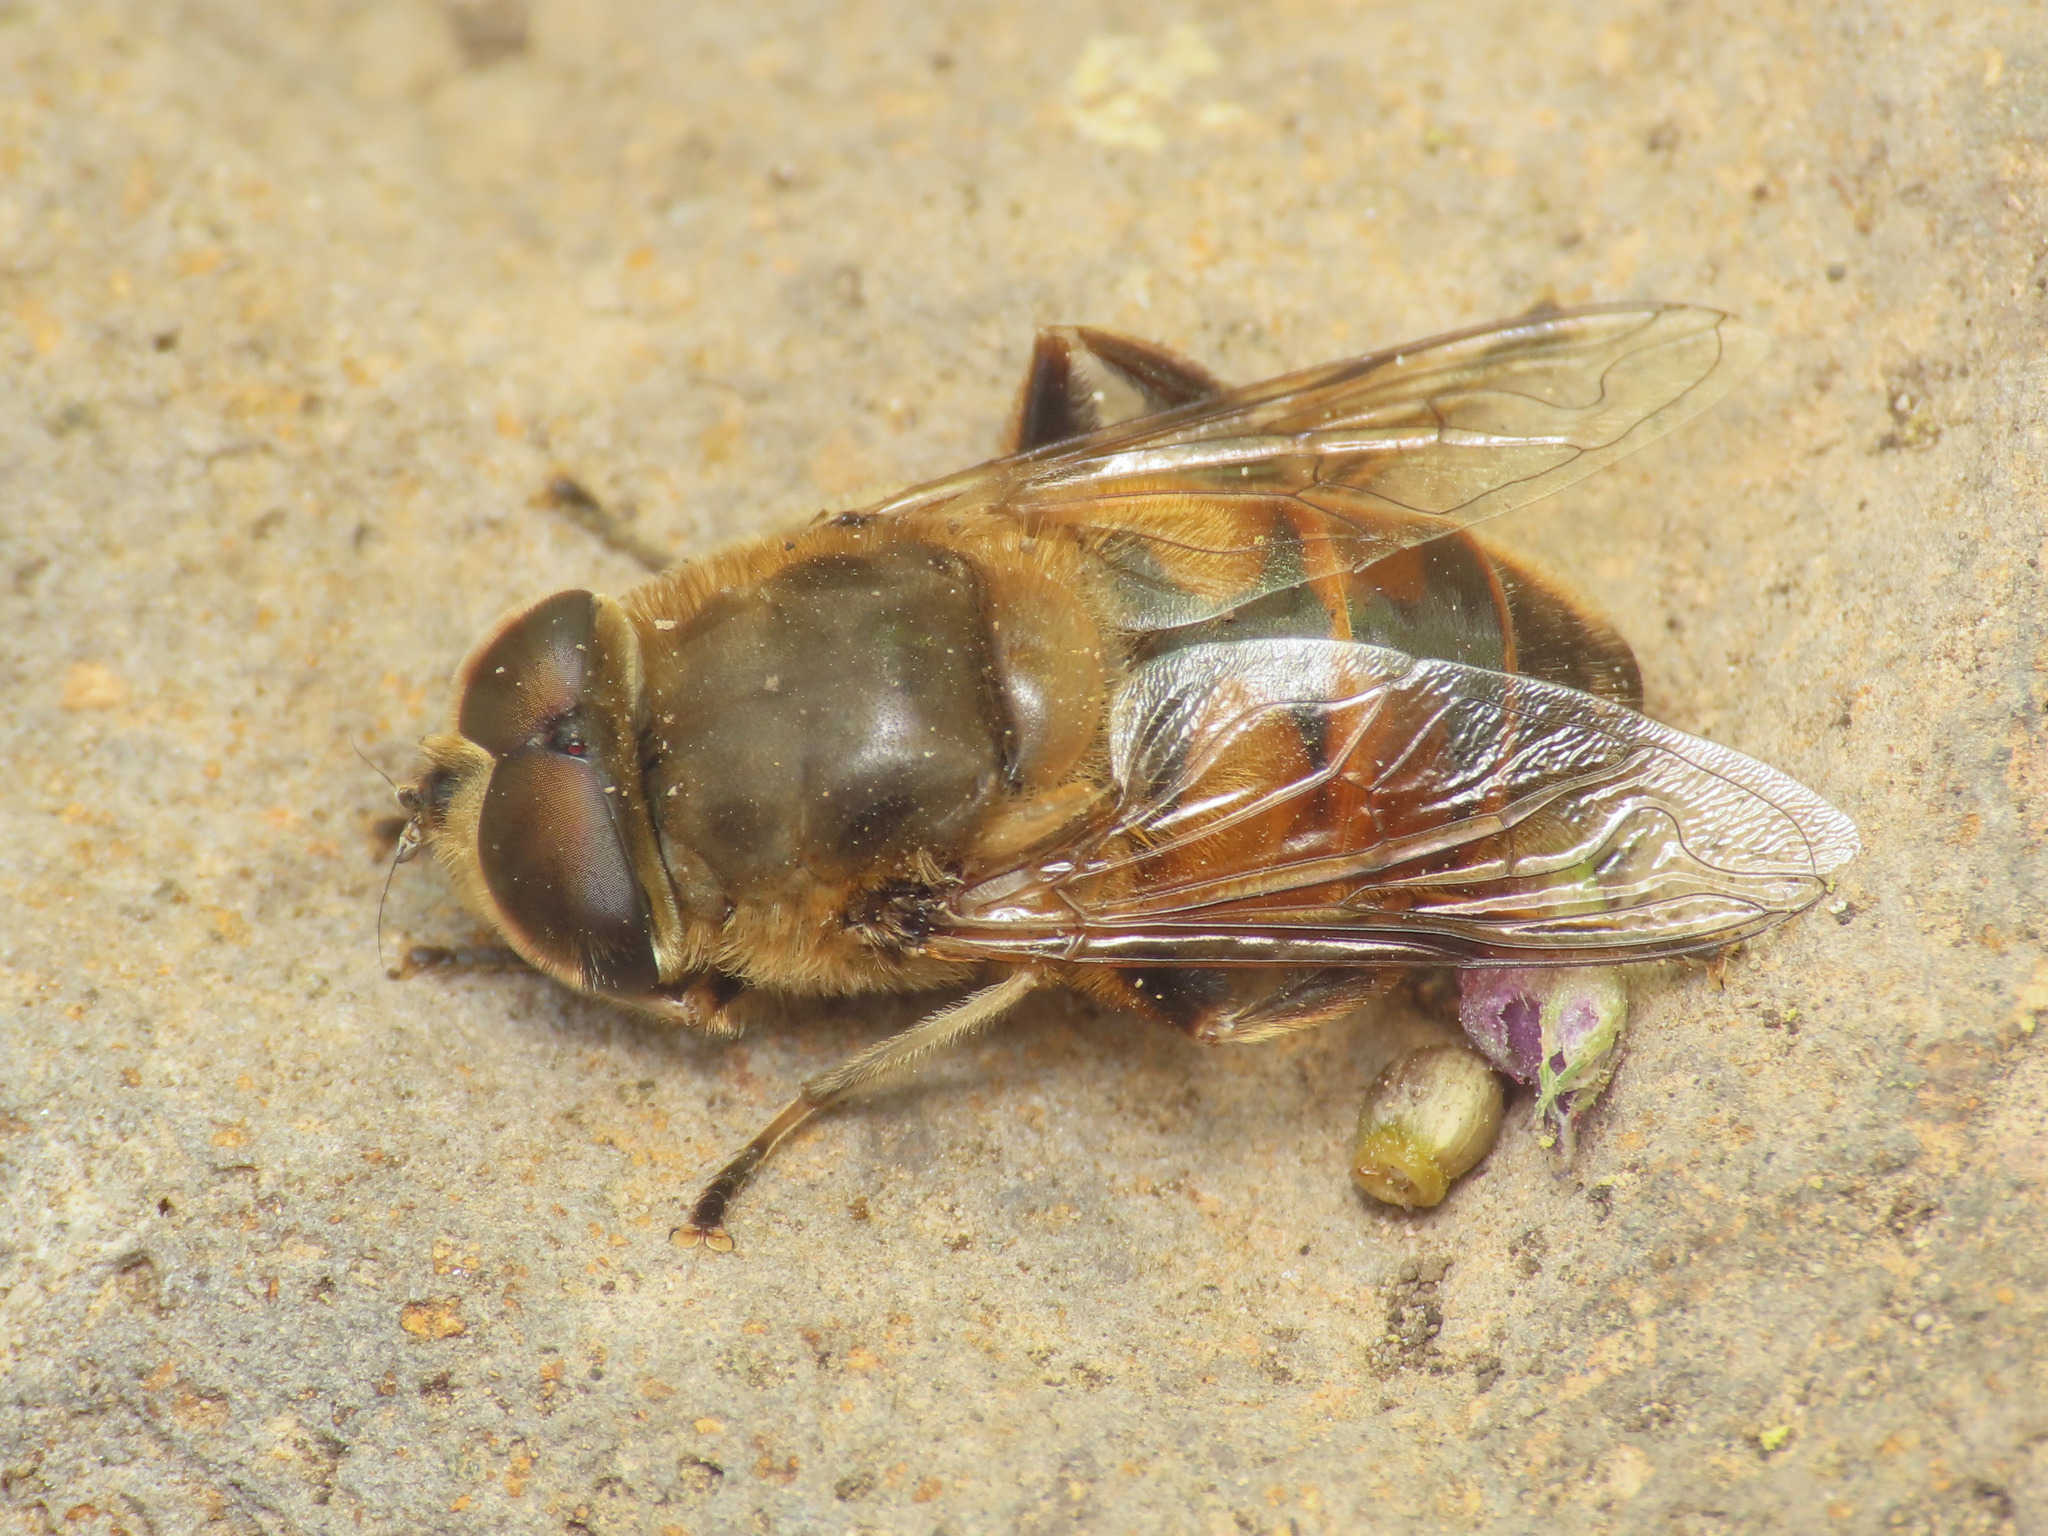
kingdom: Animalia
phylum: Arthropoda
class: Insecta
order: Diptera
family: Syrphidae
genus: Eristalis
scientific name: Eristalis tenax
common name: Drone fly
